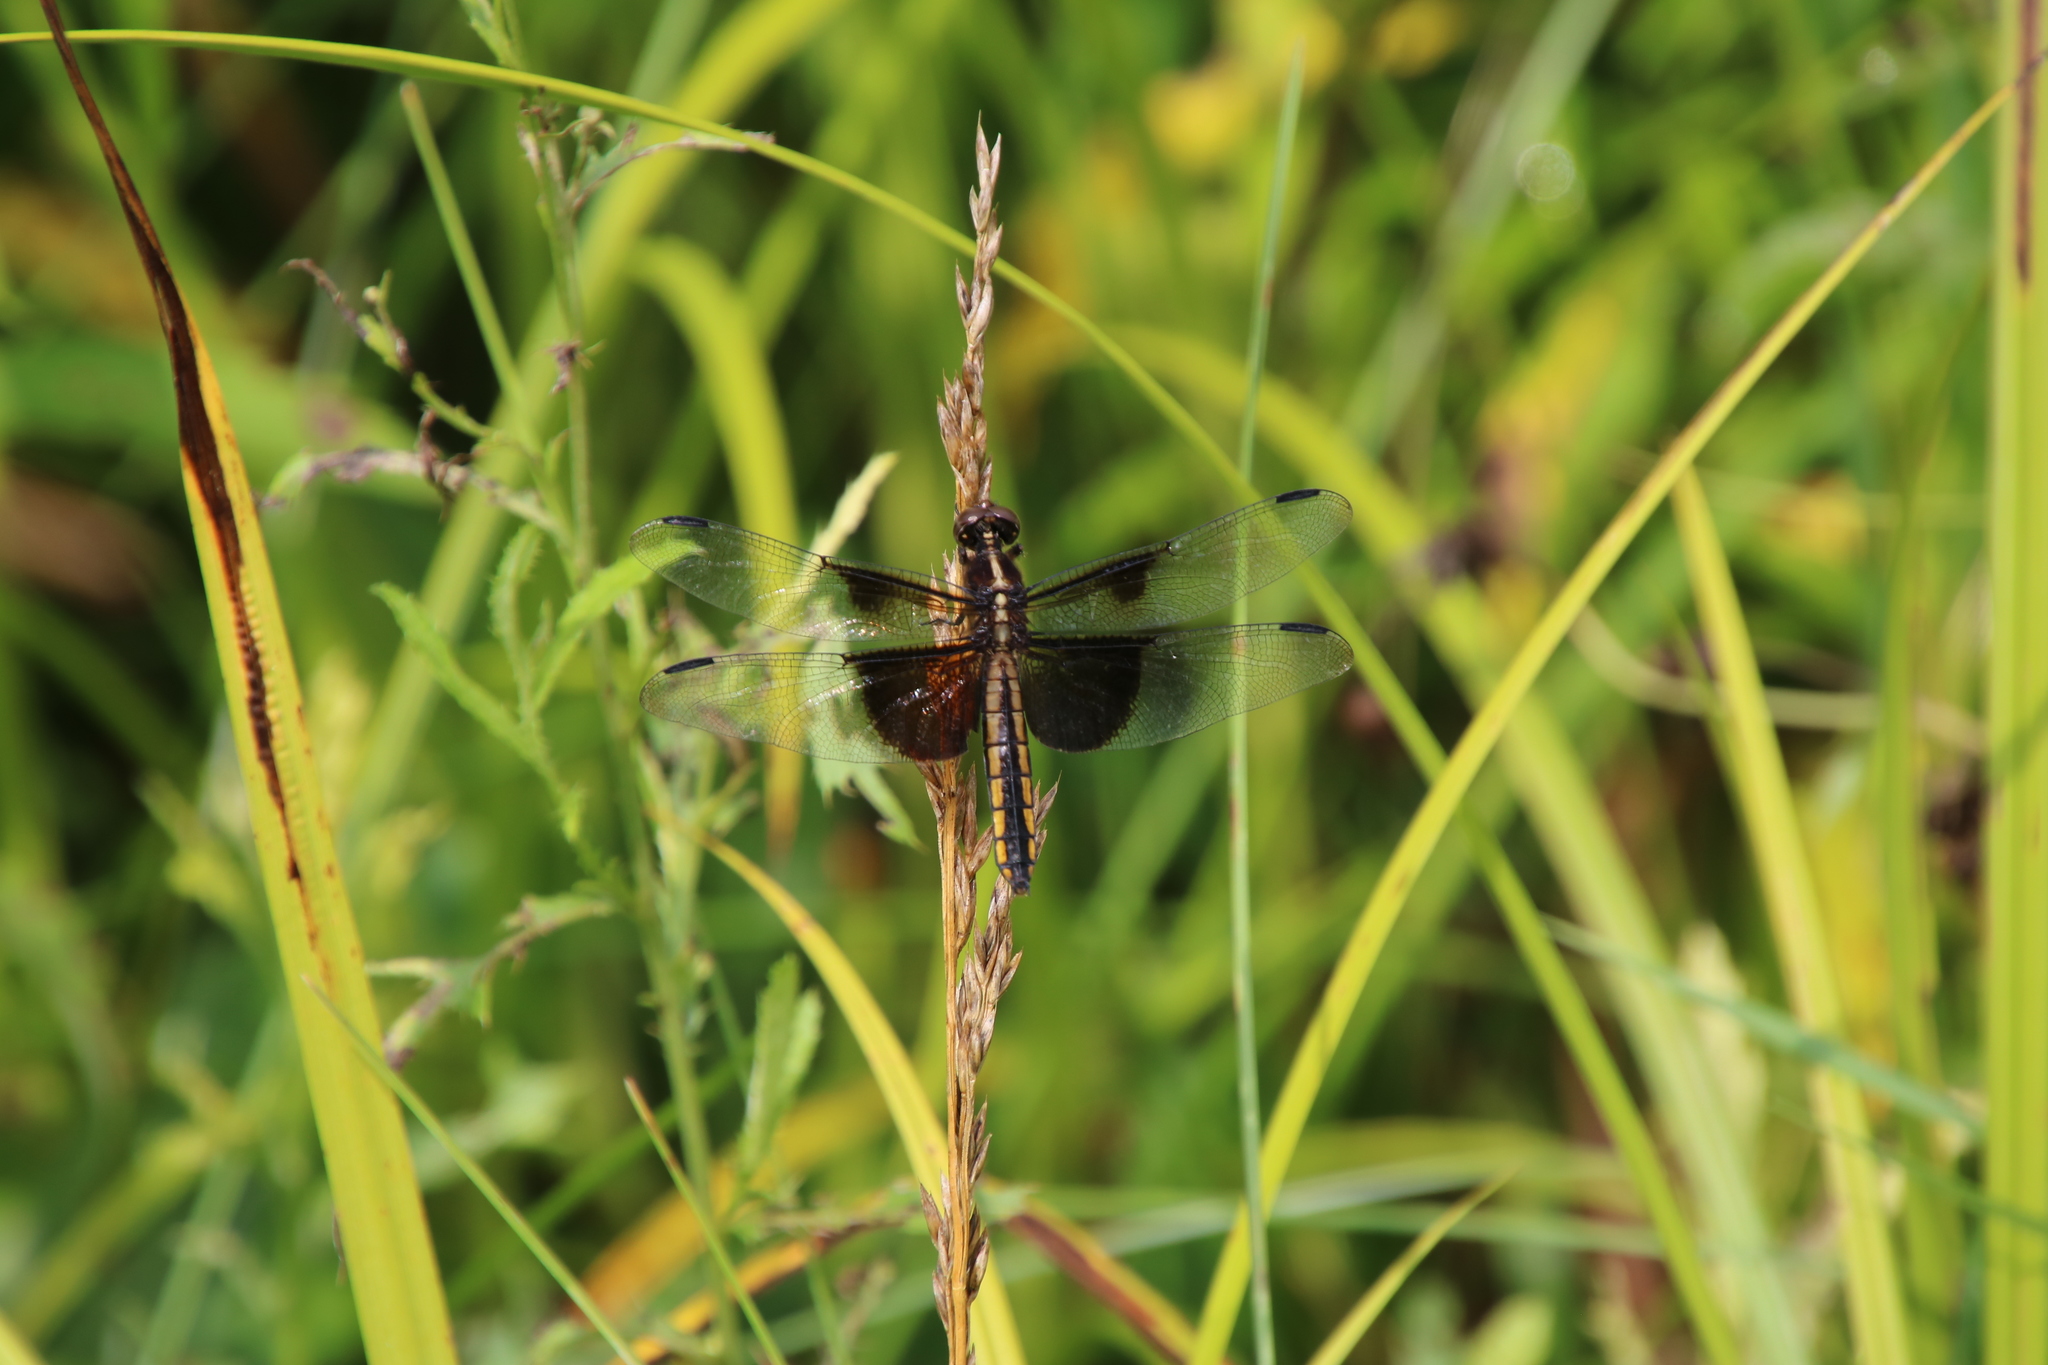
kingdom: Animalia
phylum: Arthropoda
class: Insecta
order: Odonata
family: Libellulidae
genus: Libellula
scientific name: Libellula luctuosa
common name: Widow skimmer
